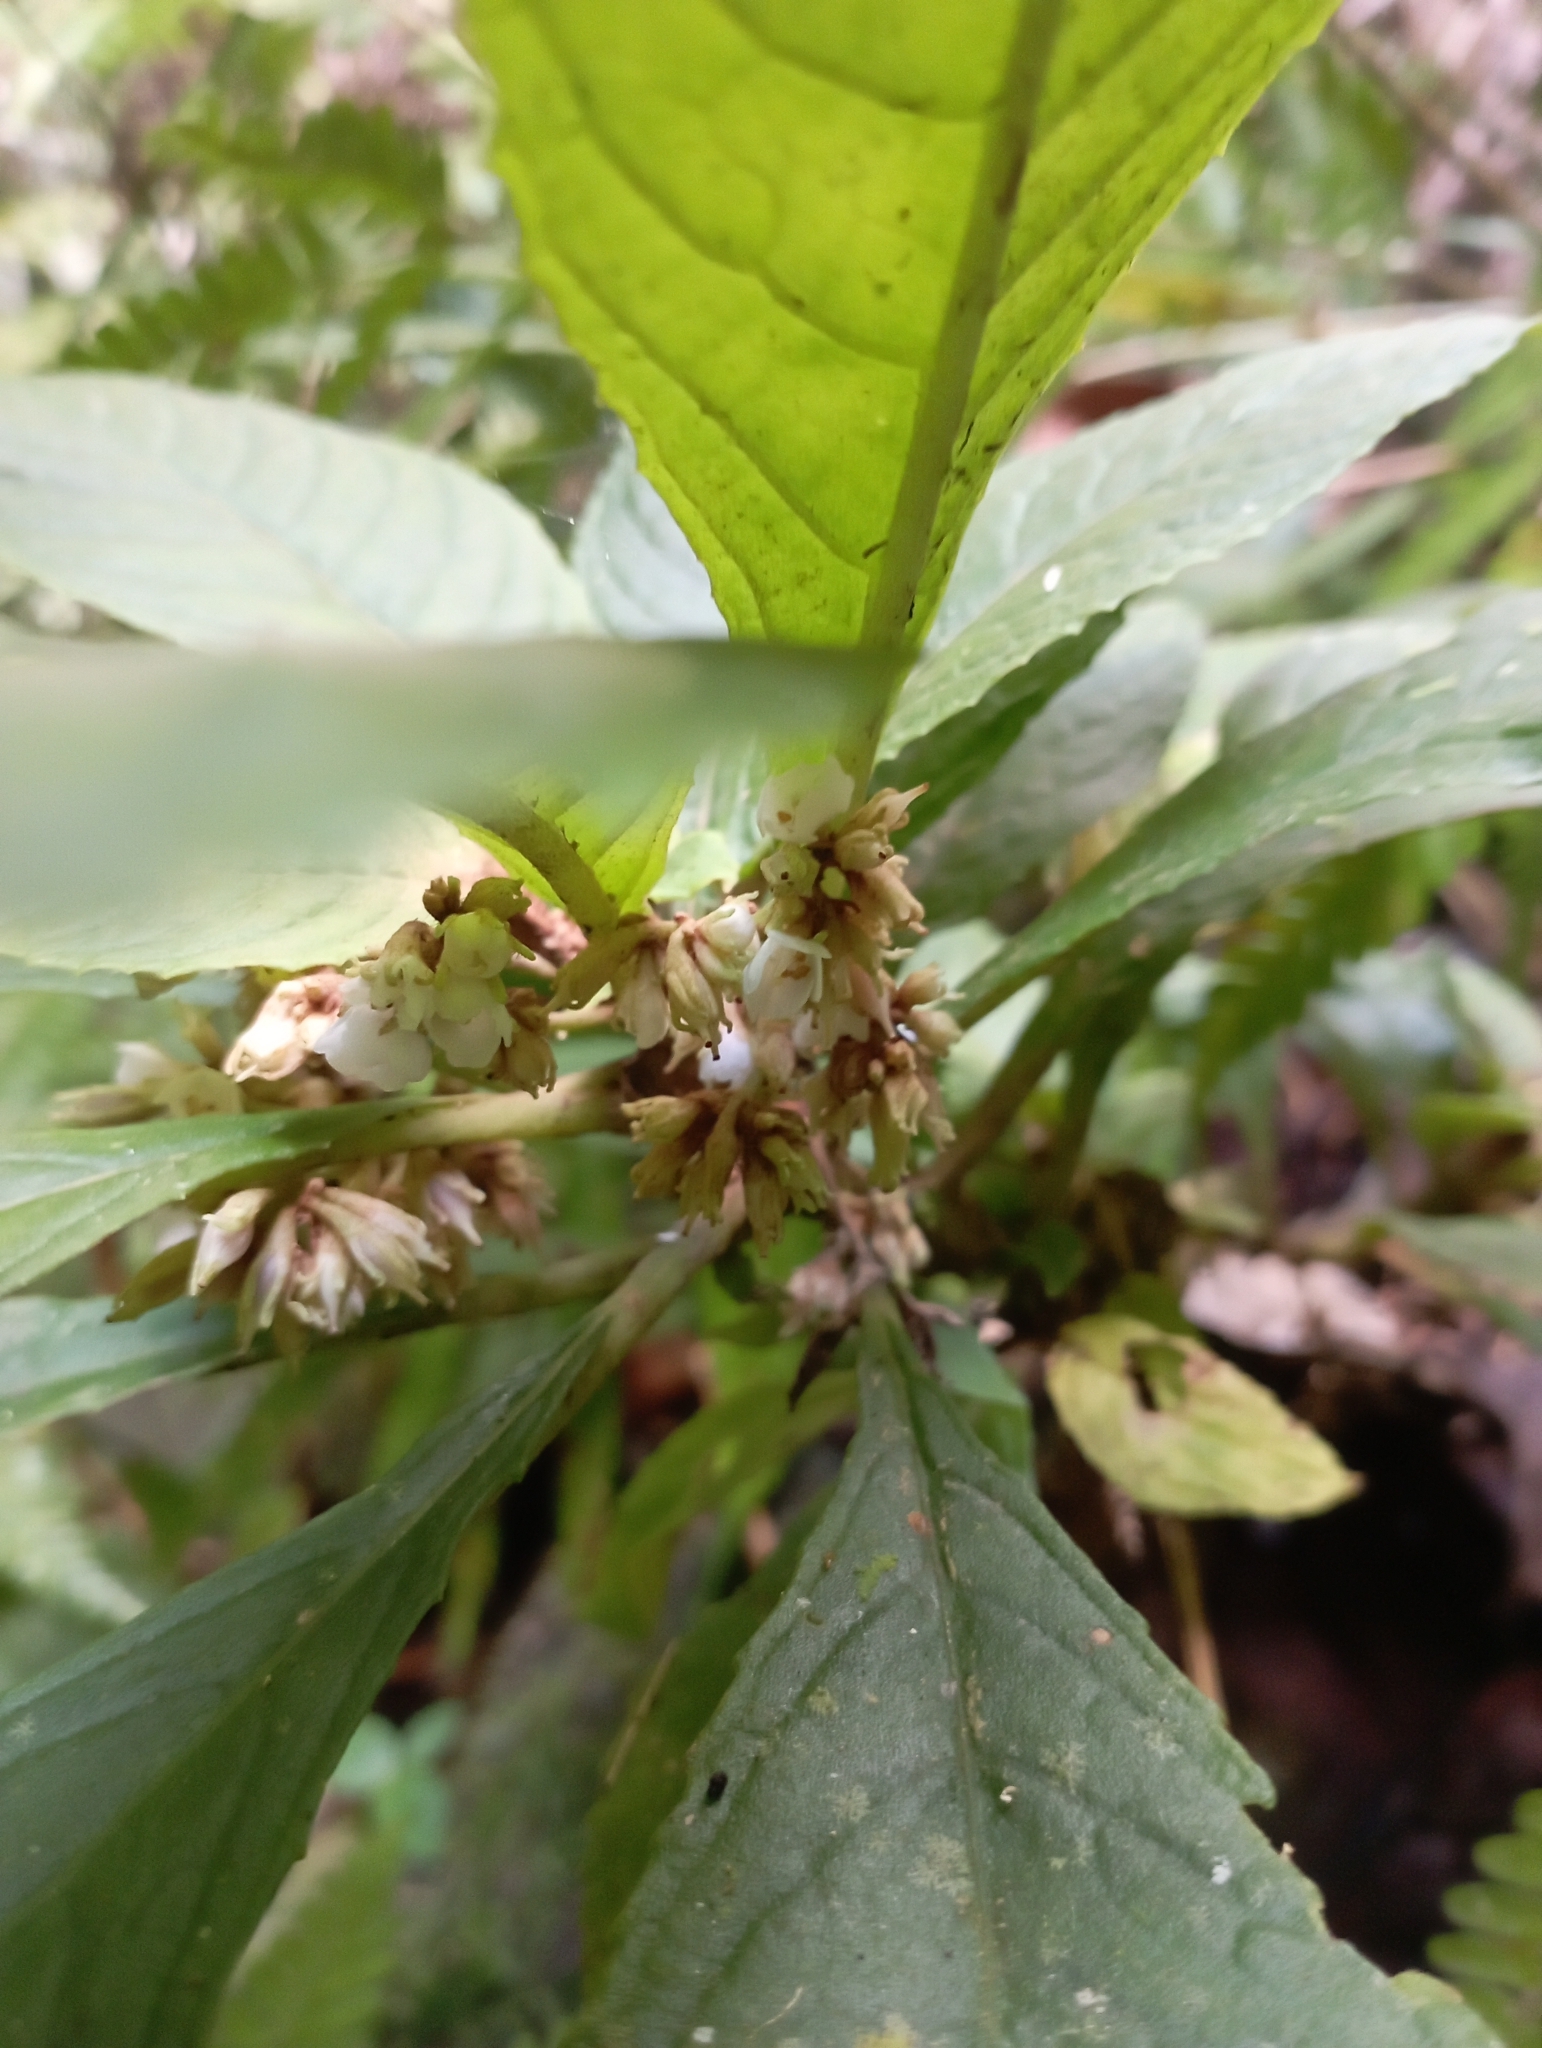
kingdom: Plantae
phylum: Tracheophyta
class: Magnoliopsida
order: Lamiales
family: Gesneriaceae
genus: Rhynchotechum
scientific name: Rhynchotechum discolor
